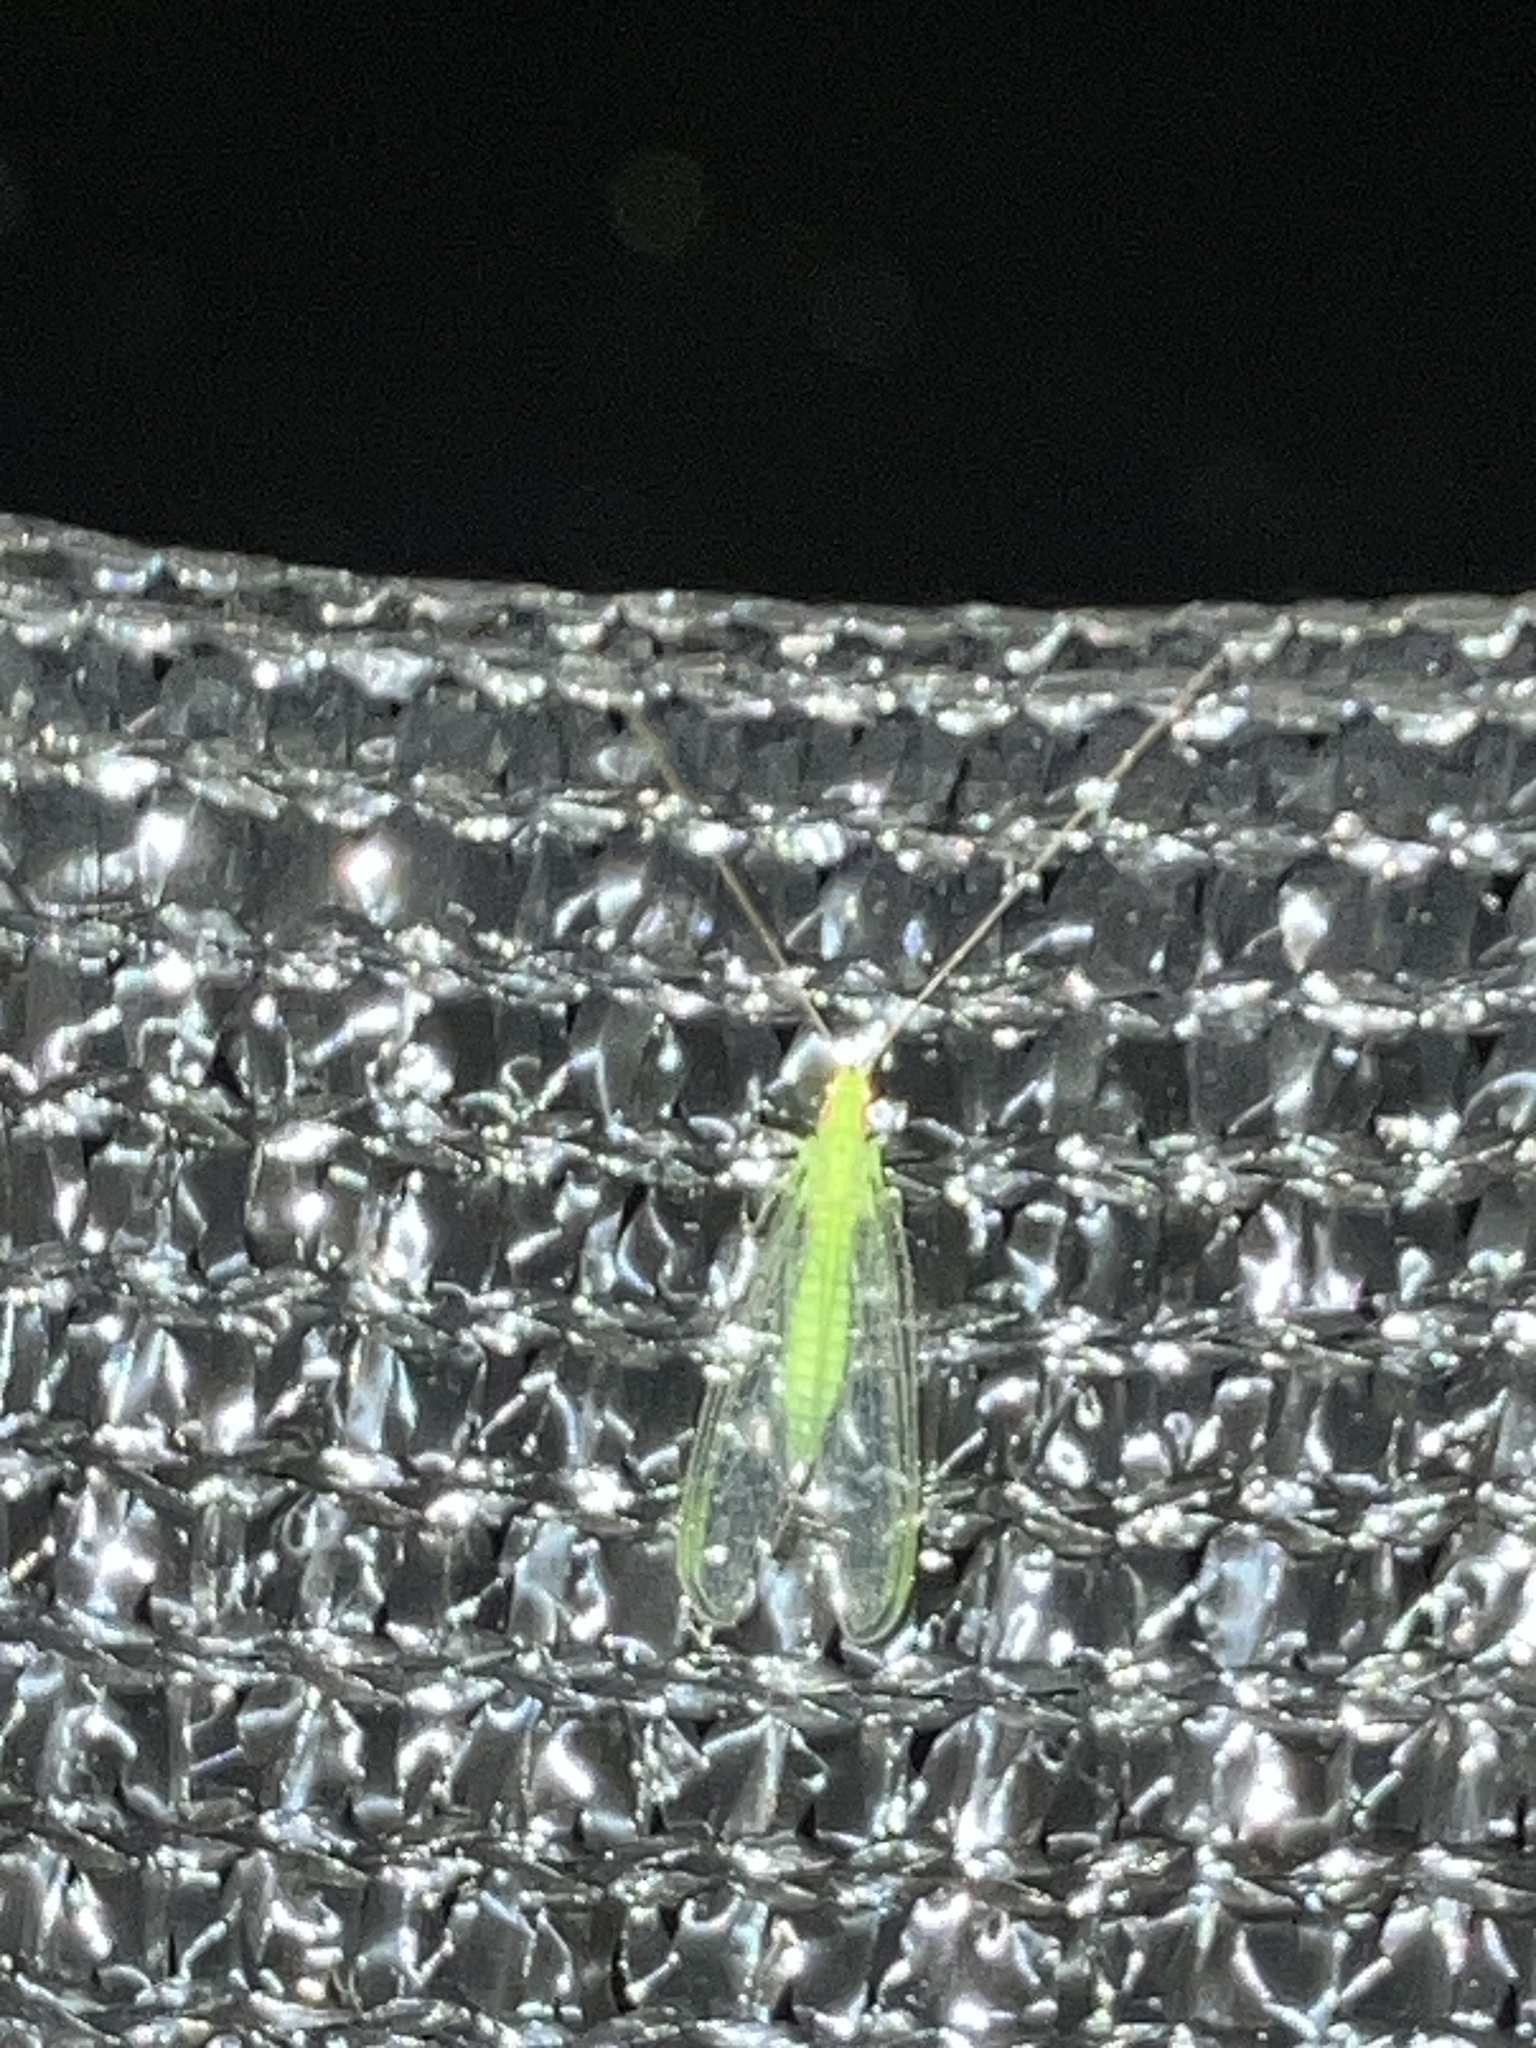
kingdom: Animalia
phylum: Arthropoda
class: Insecta
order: Neuroptera
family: Chrysopidae
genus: Ceraeochrysa
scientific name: Ceraeochrysa
